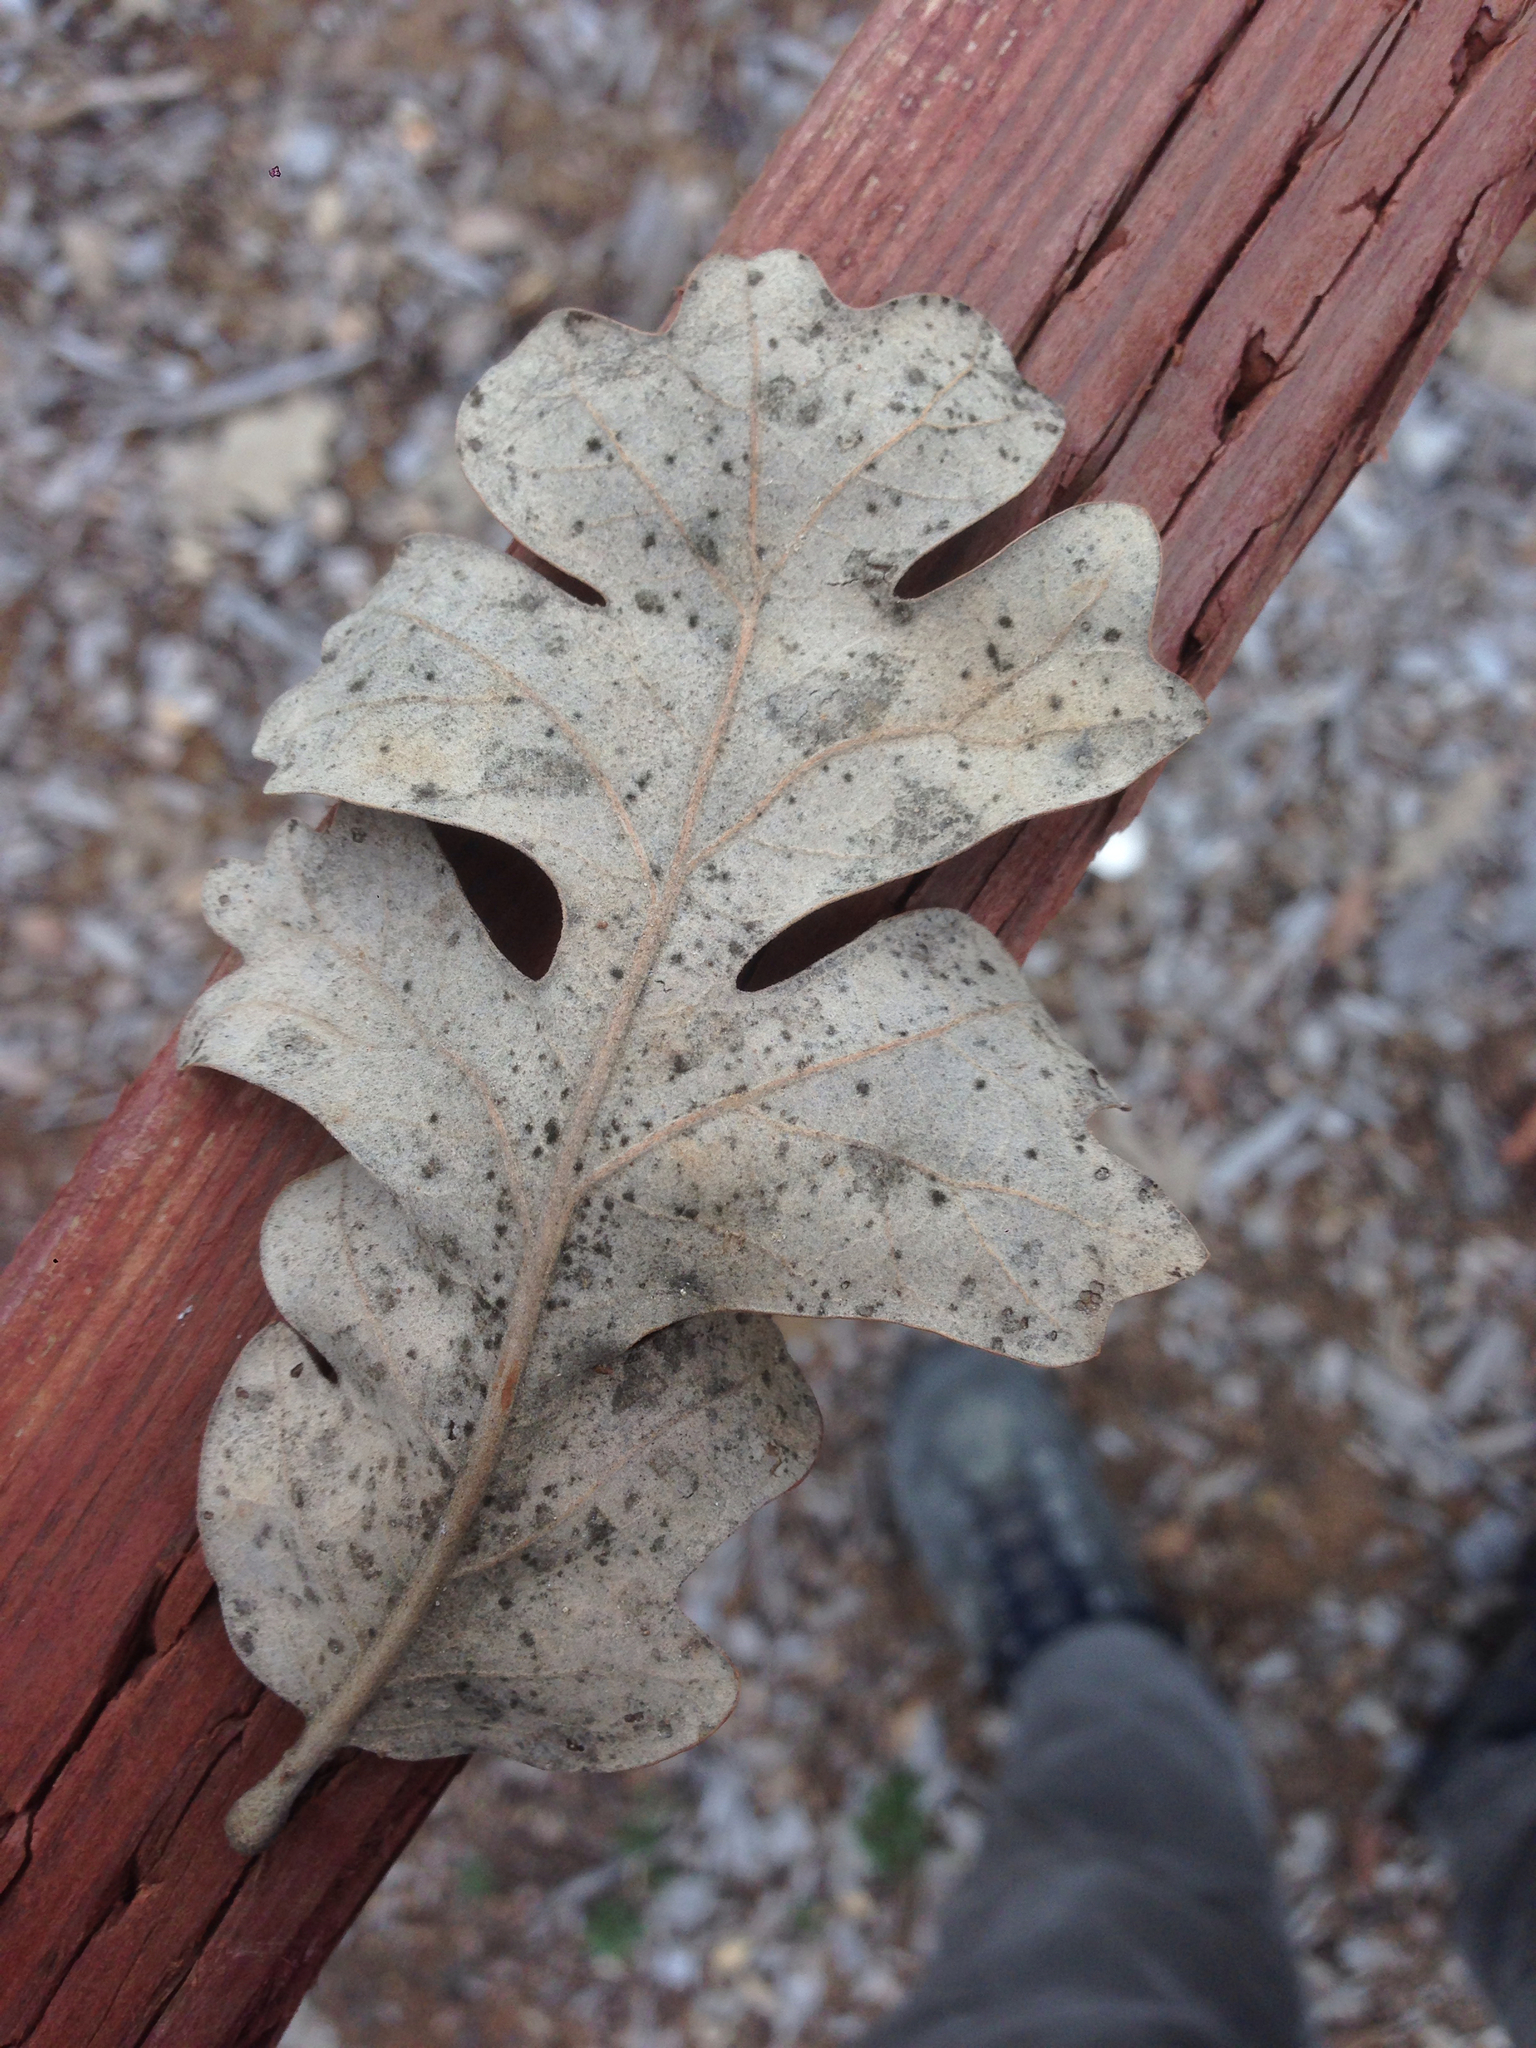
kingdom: Plantae
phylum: Tracheophyta
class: Magnoliopsida
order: Fagales
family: Fagaceae
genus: Quercus
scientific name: Quercus lobata
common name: Valley oak
